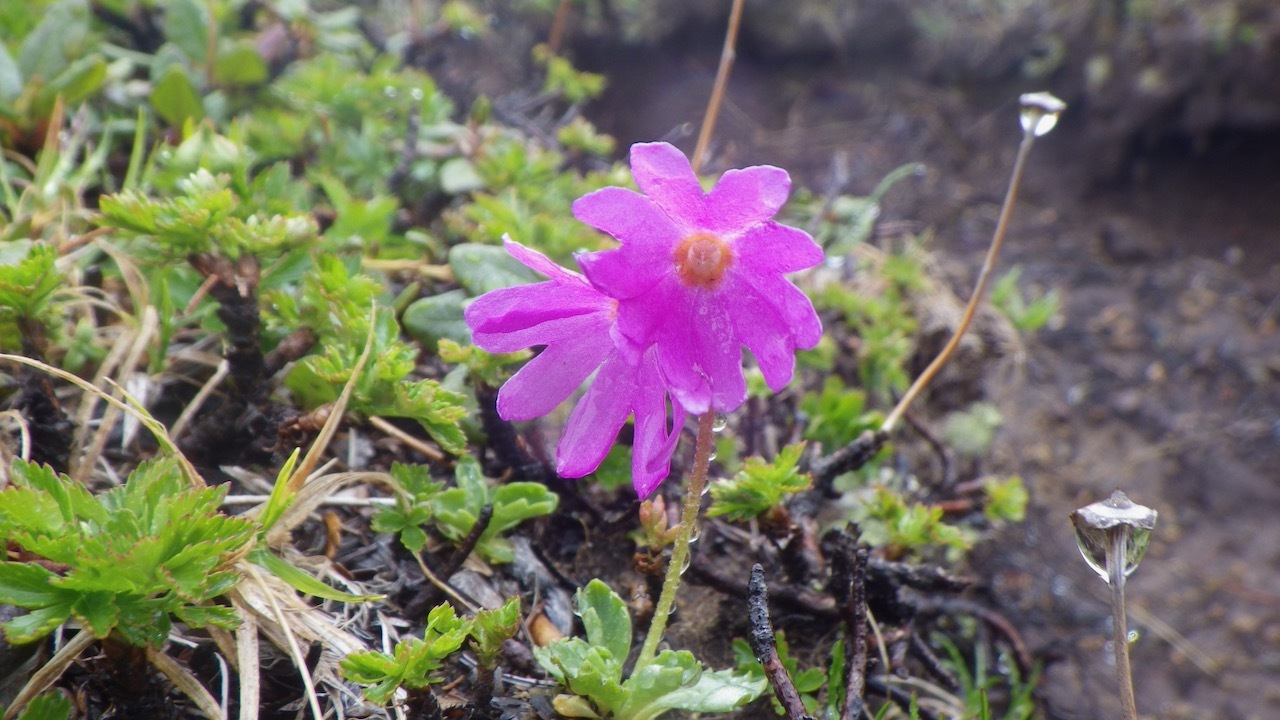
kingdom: Plantae
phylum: Tracheophyta
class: Magnoliopsida
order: Ericales
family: Primulaceae
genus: Primula
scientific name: Primula cuneifolia
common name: Wedge-leaved primrose
